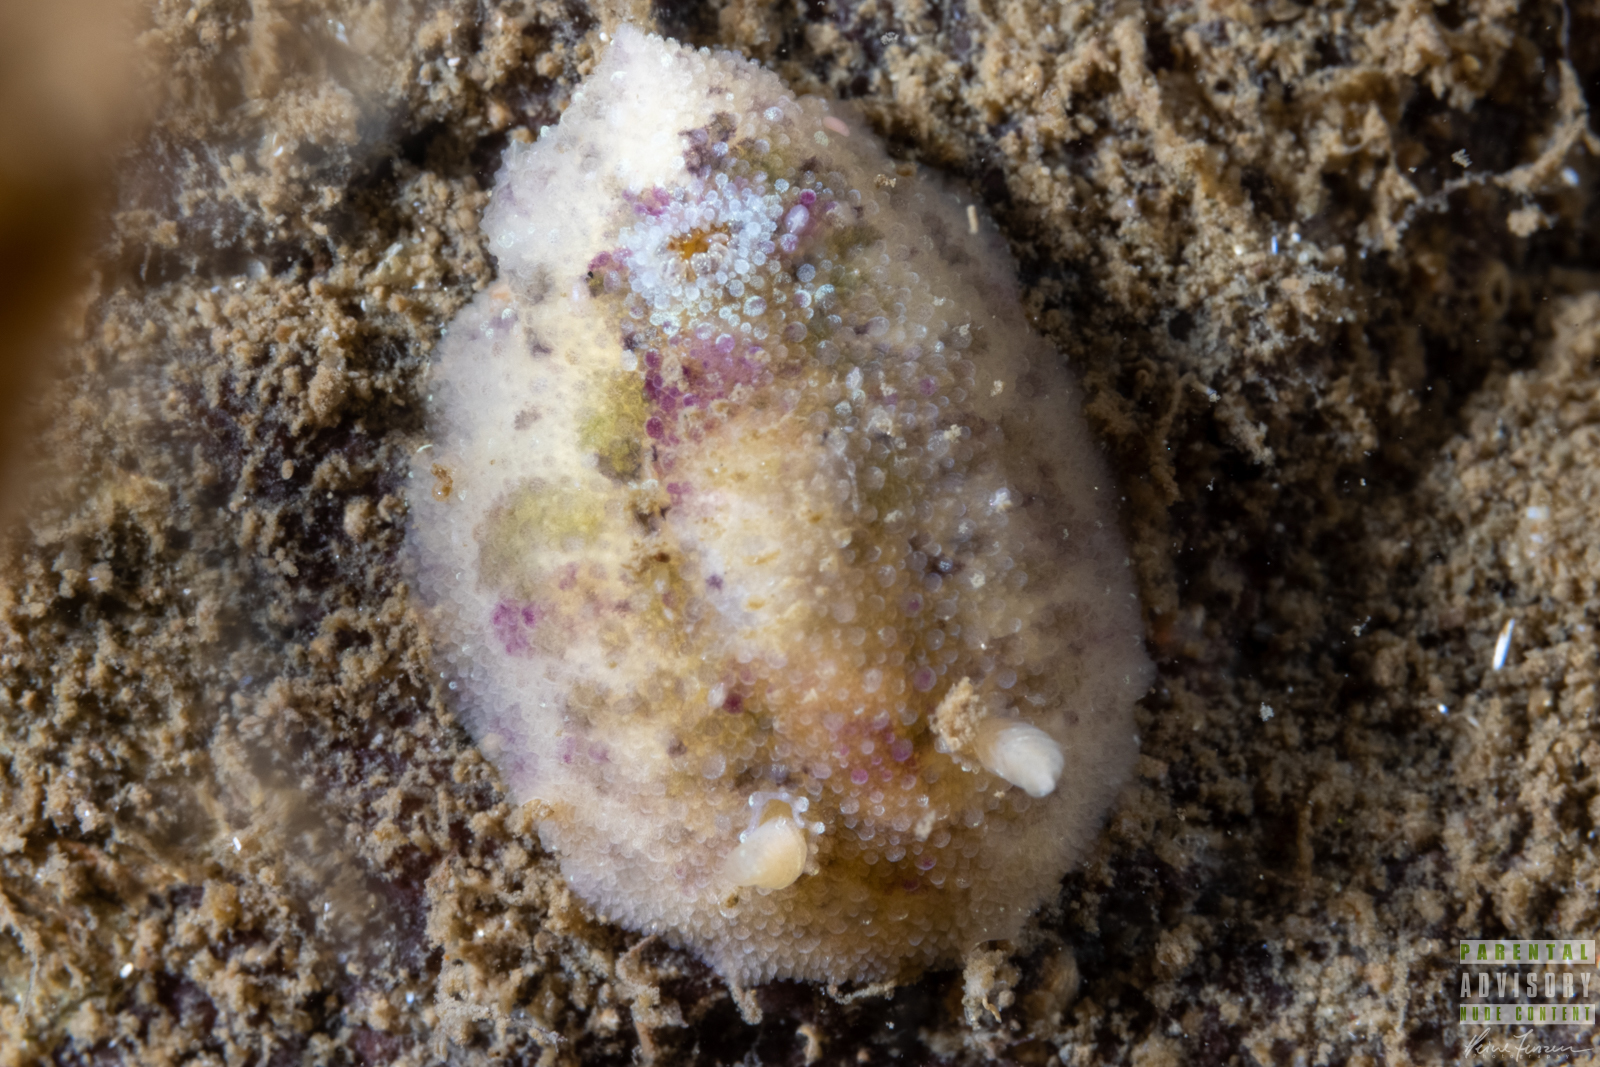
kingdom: Animalia
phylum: Mollusca
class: Gastropoda
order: Nudibranchia
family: Dorididae
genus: Doris
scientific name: Doris pseudoargus
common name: Sea lemon
